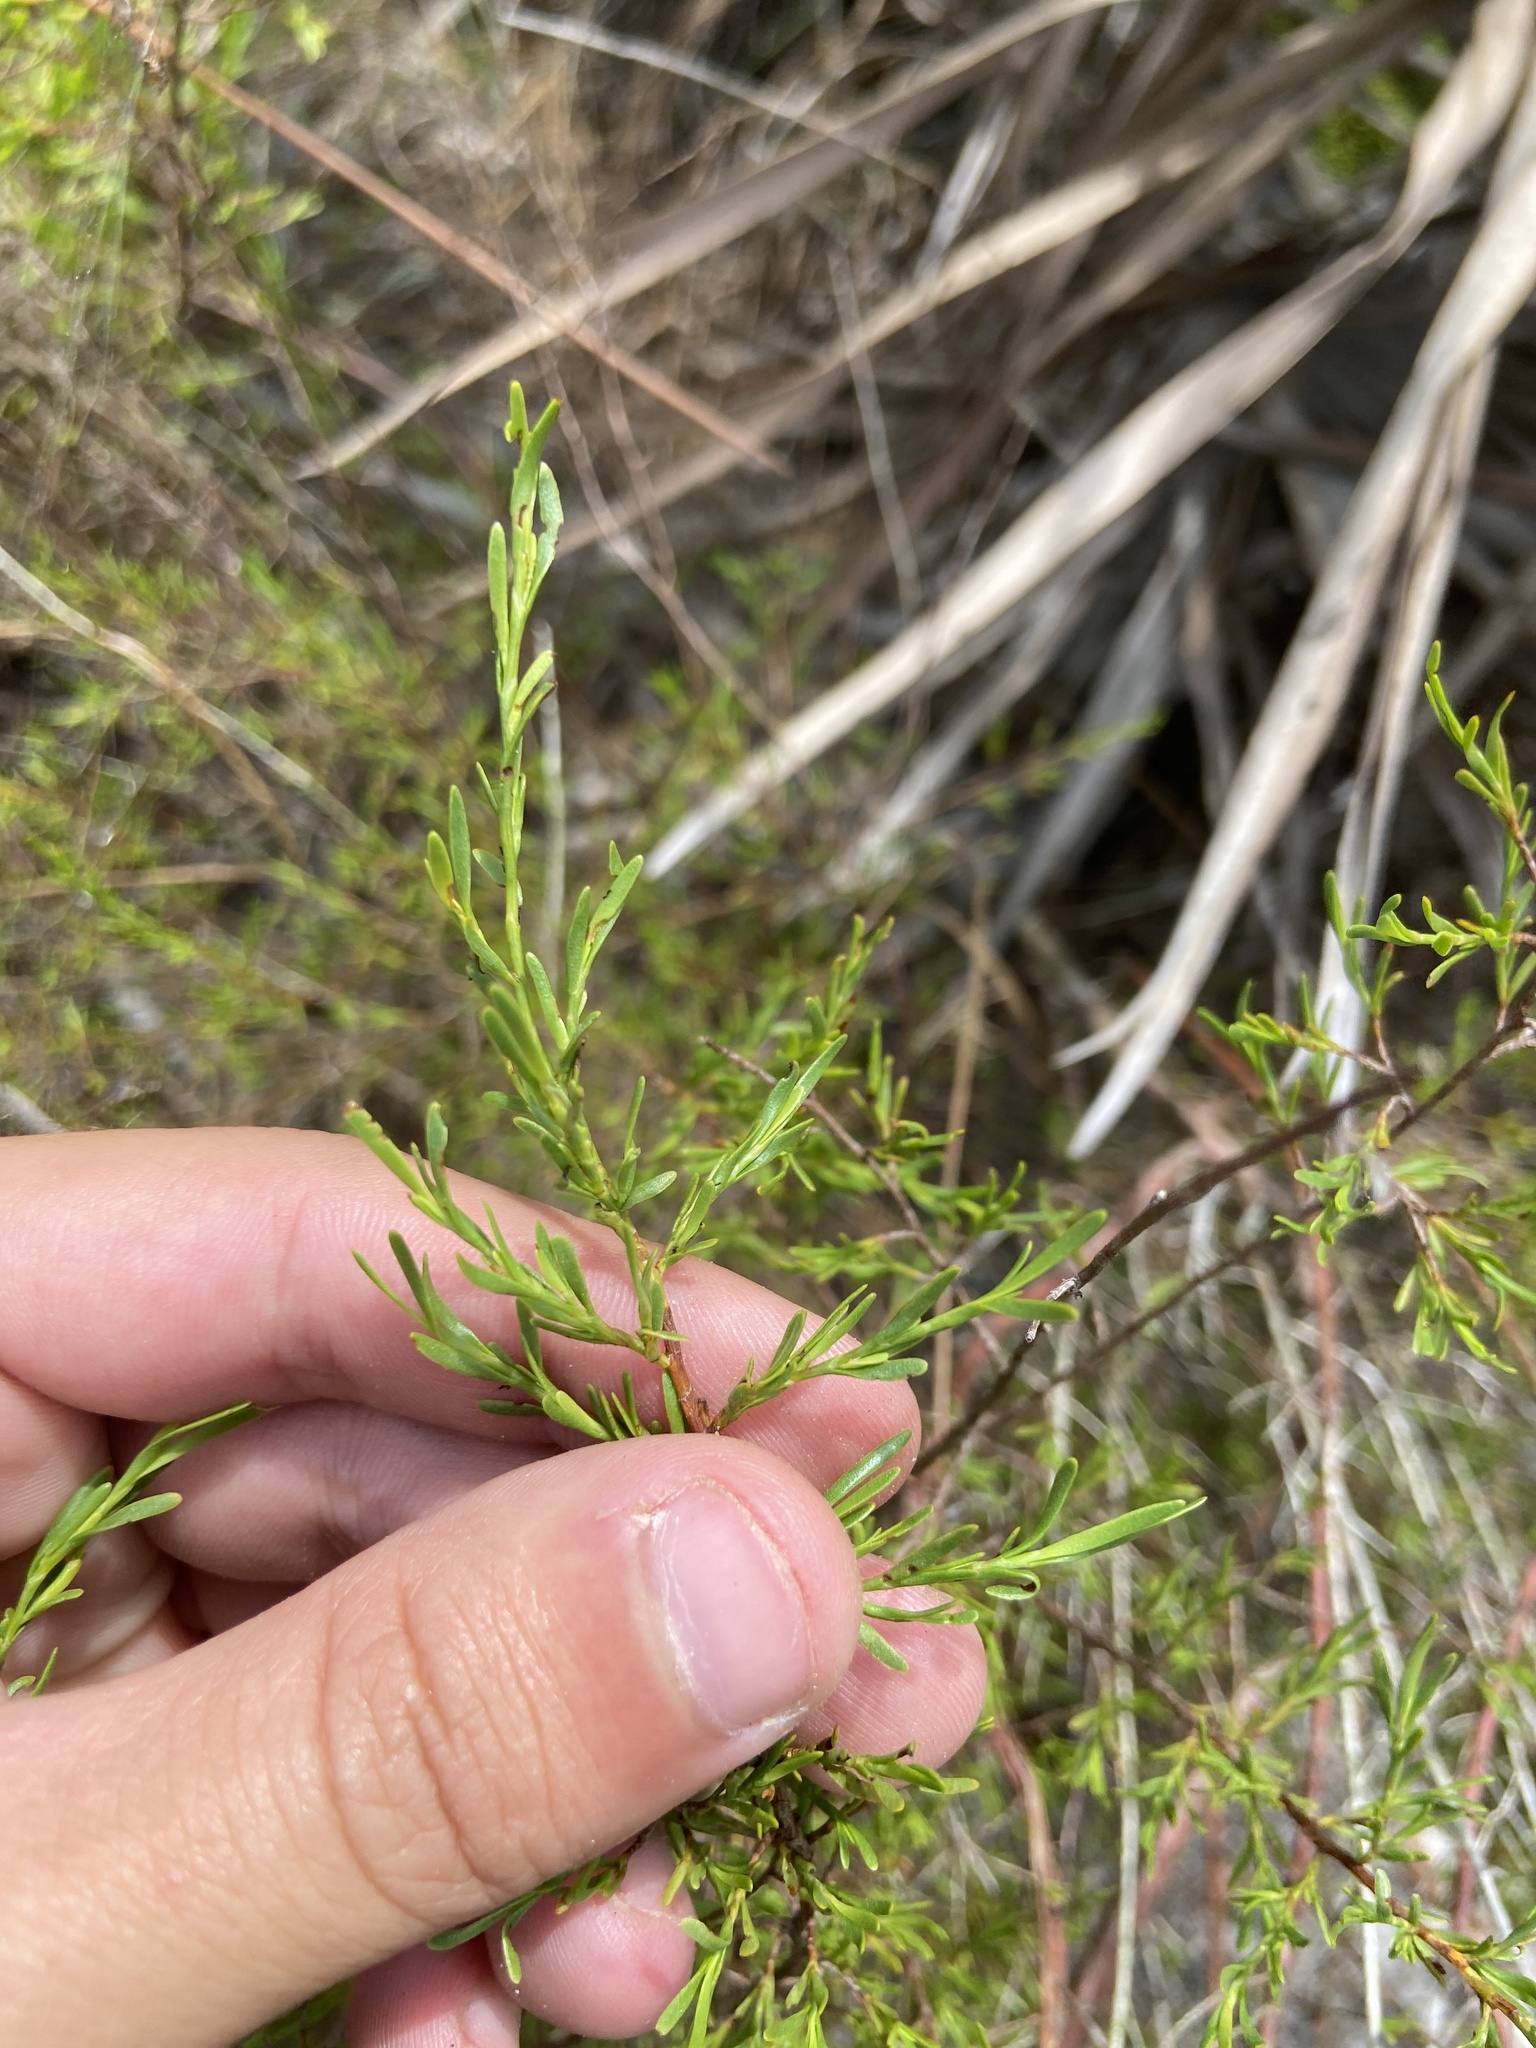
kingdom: Plantae
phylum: Tracheophyta
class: Magnoliopsida
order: Caryophyllales
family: Polygonaceae
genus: Polygonella
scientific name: Polygonella polygama
